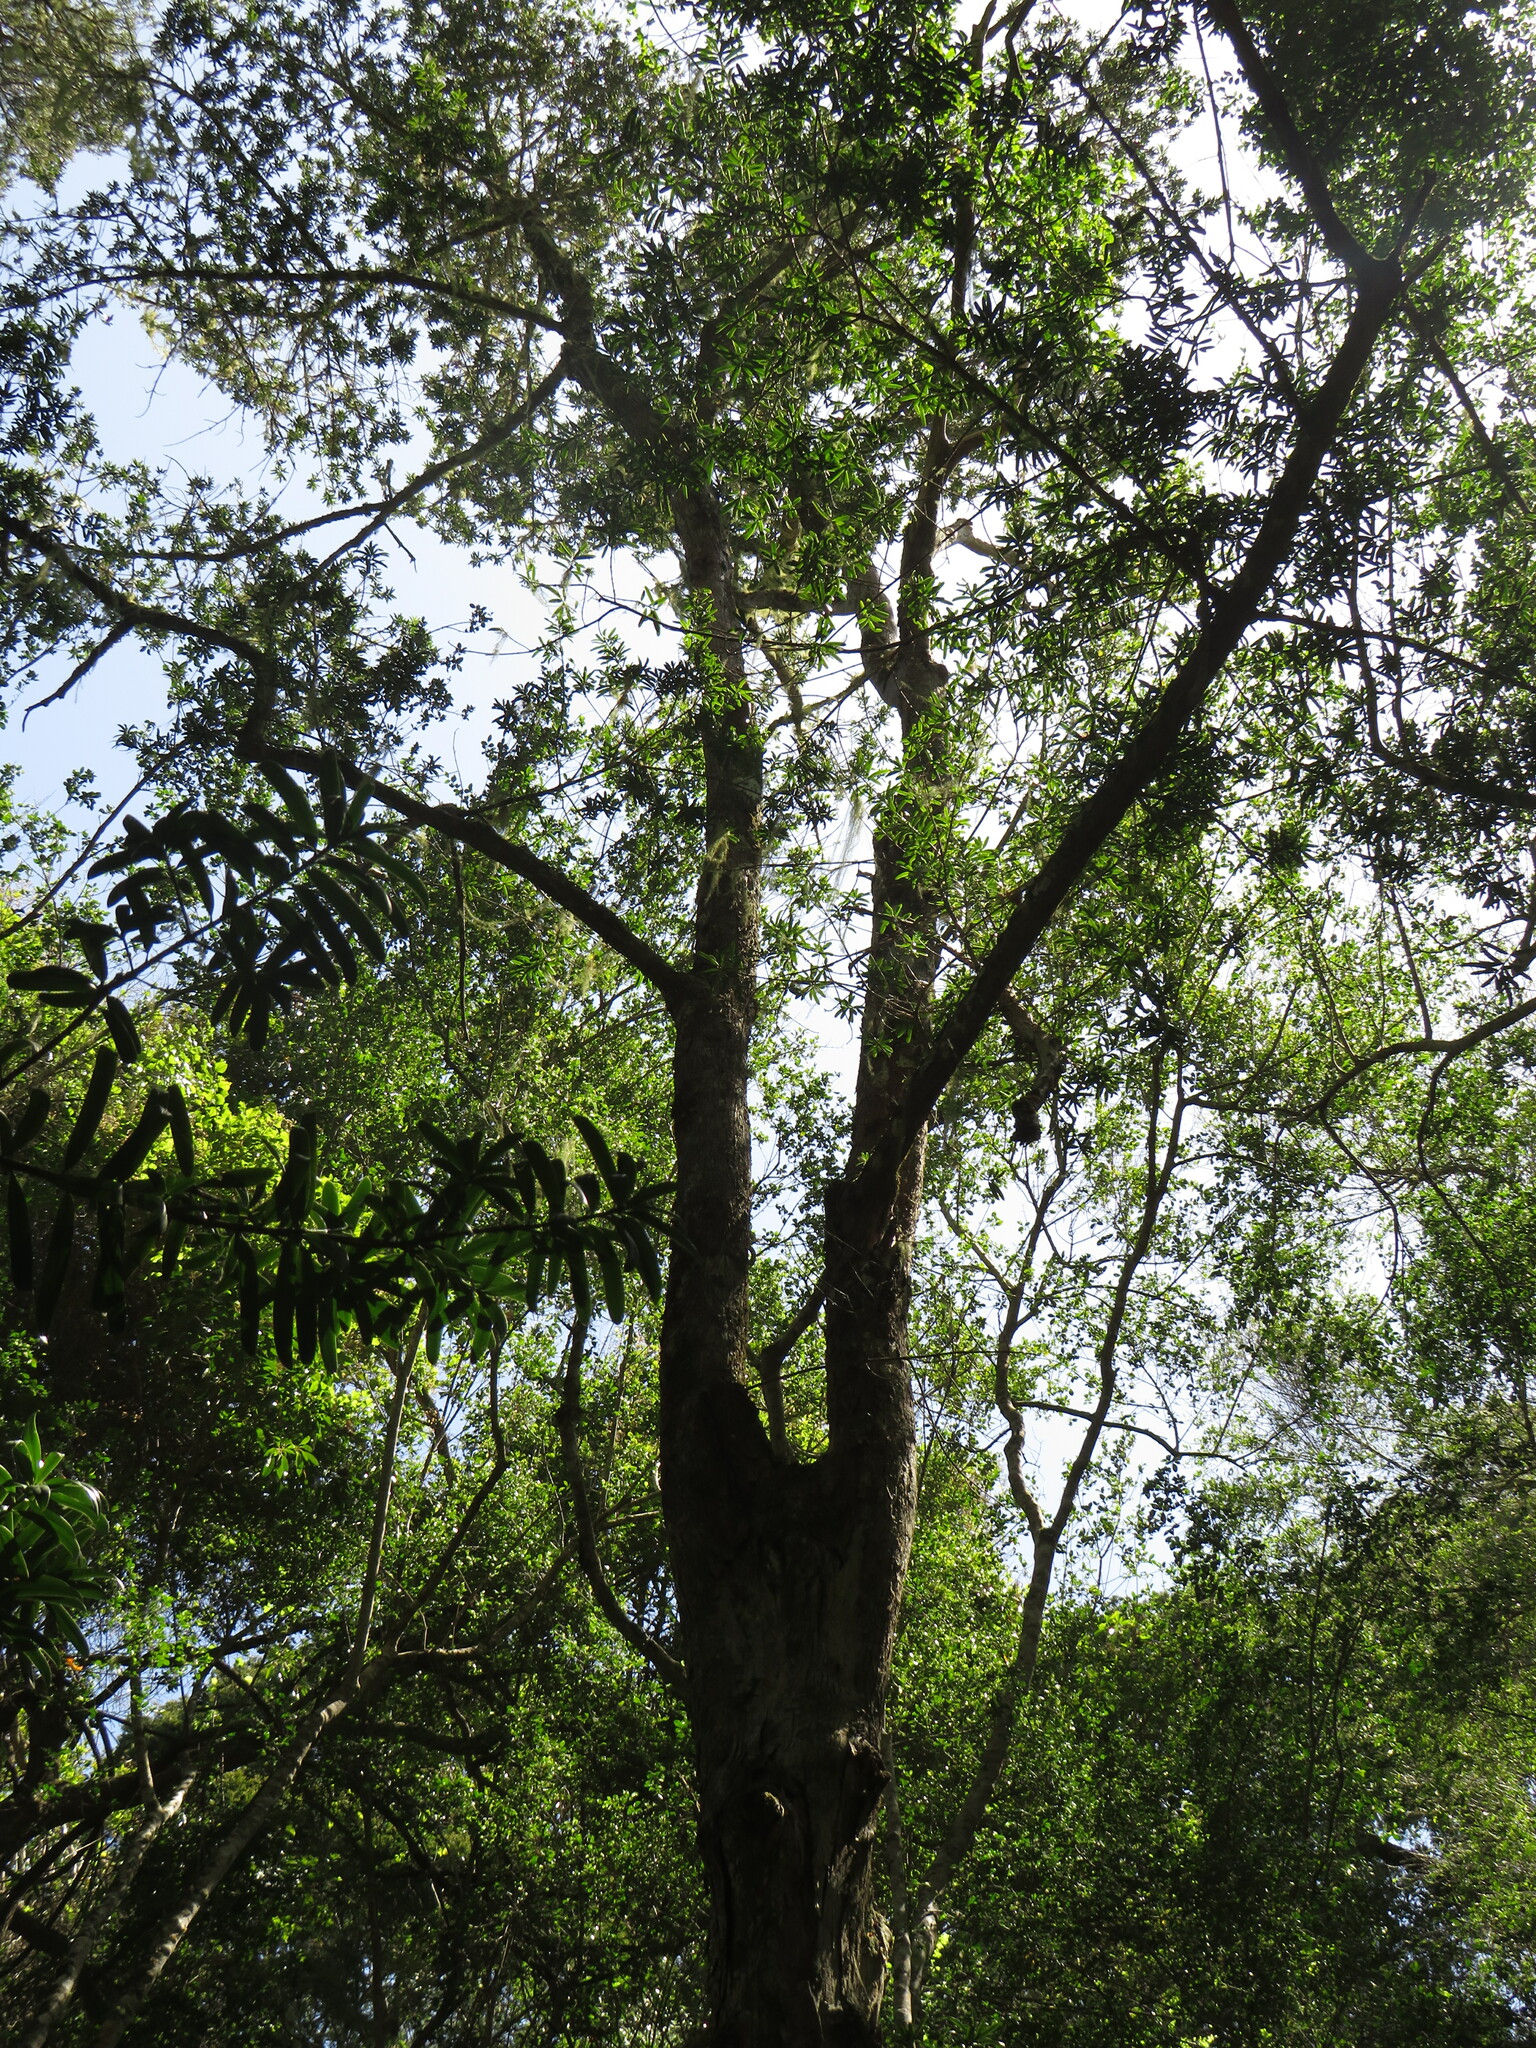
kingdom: Plantae
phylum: Tracheophyta
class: Pinopsida
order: Pinales
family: Podocarpaceae
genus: Podocarpus
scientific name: Podocarpus latifolius
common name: True yellowwood
